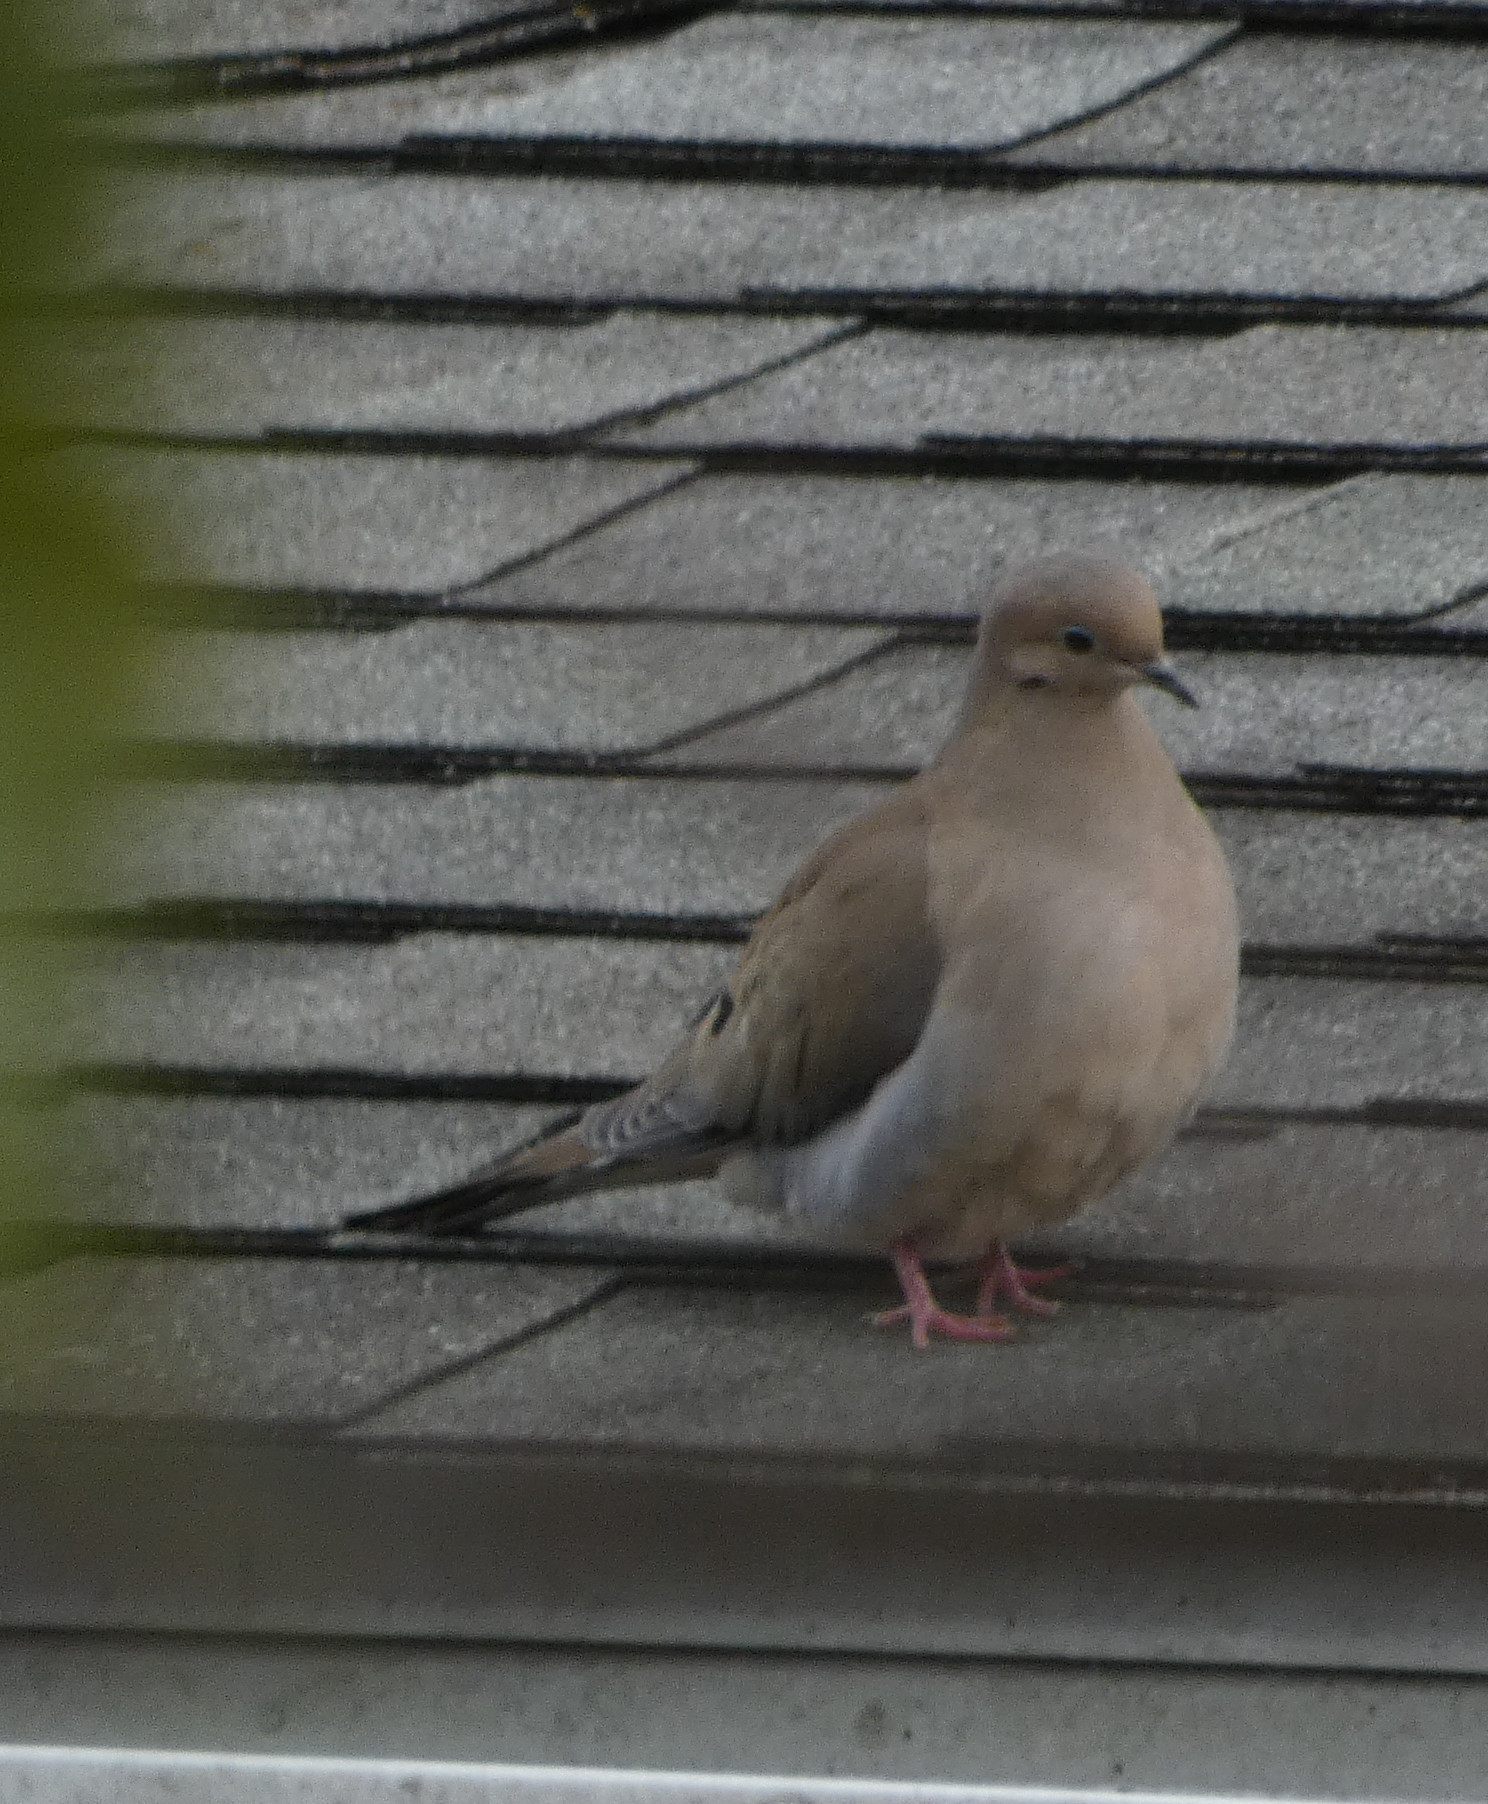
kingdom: Animalia
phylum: Chordata
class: Aves
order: Columbiformes
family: Columbidae
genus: Zenaida
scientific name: Zenaida macroura
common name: Mourning dove
